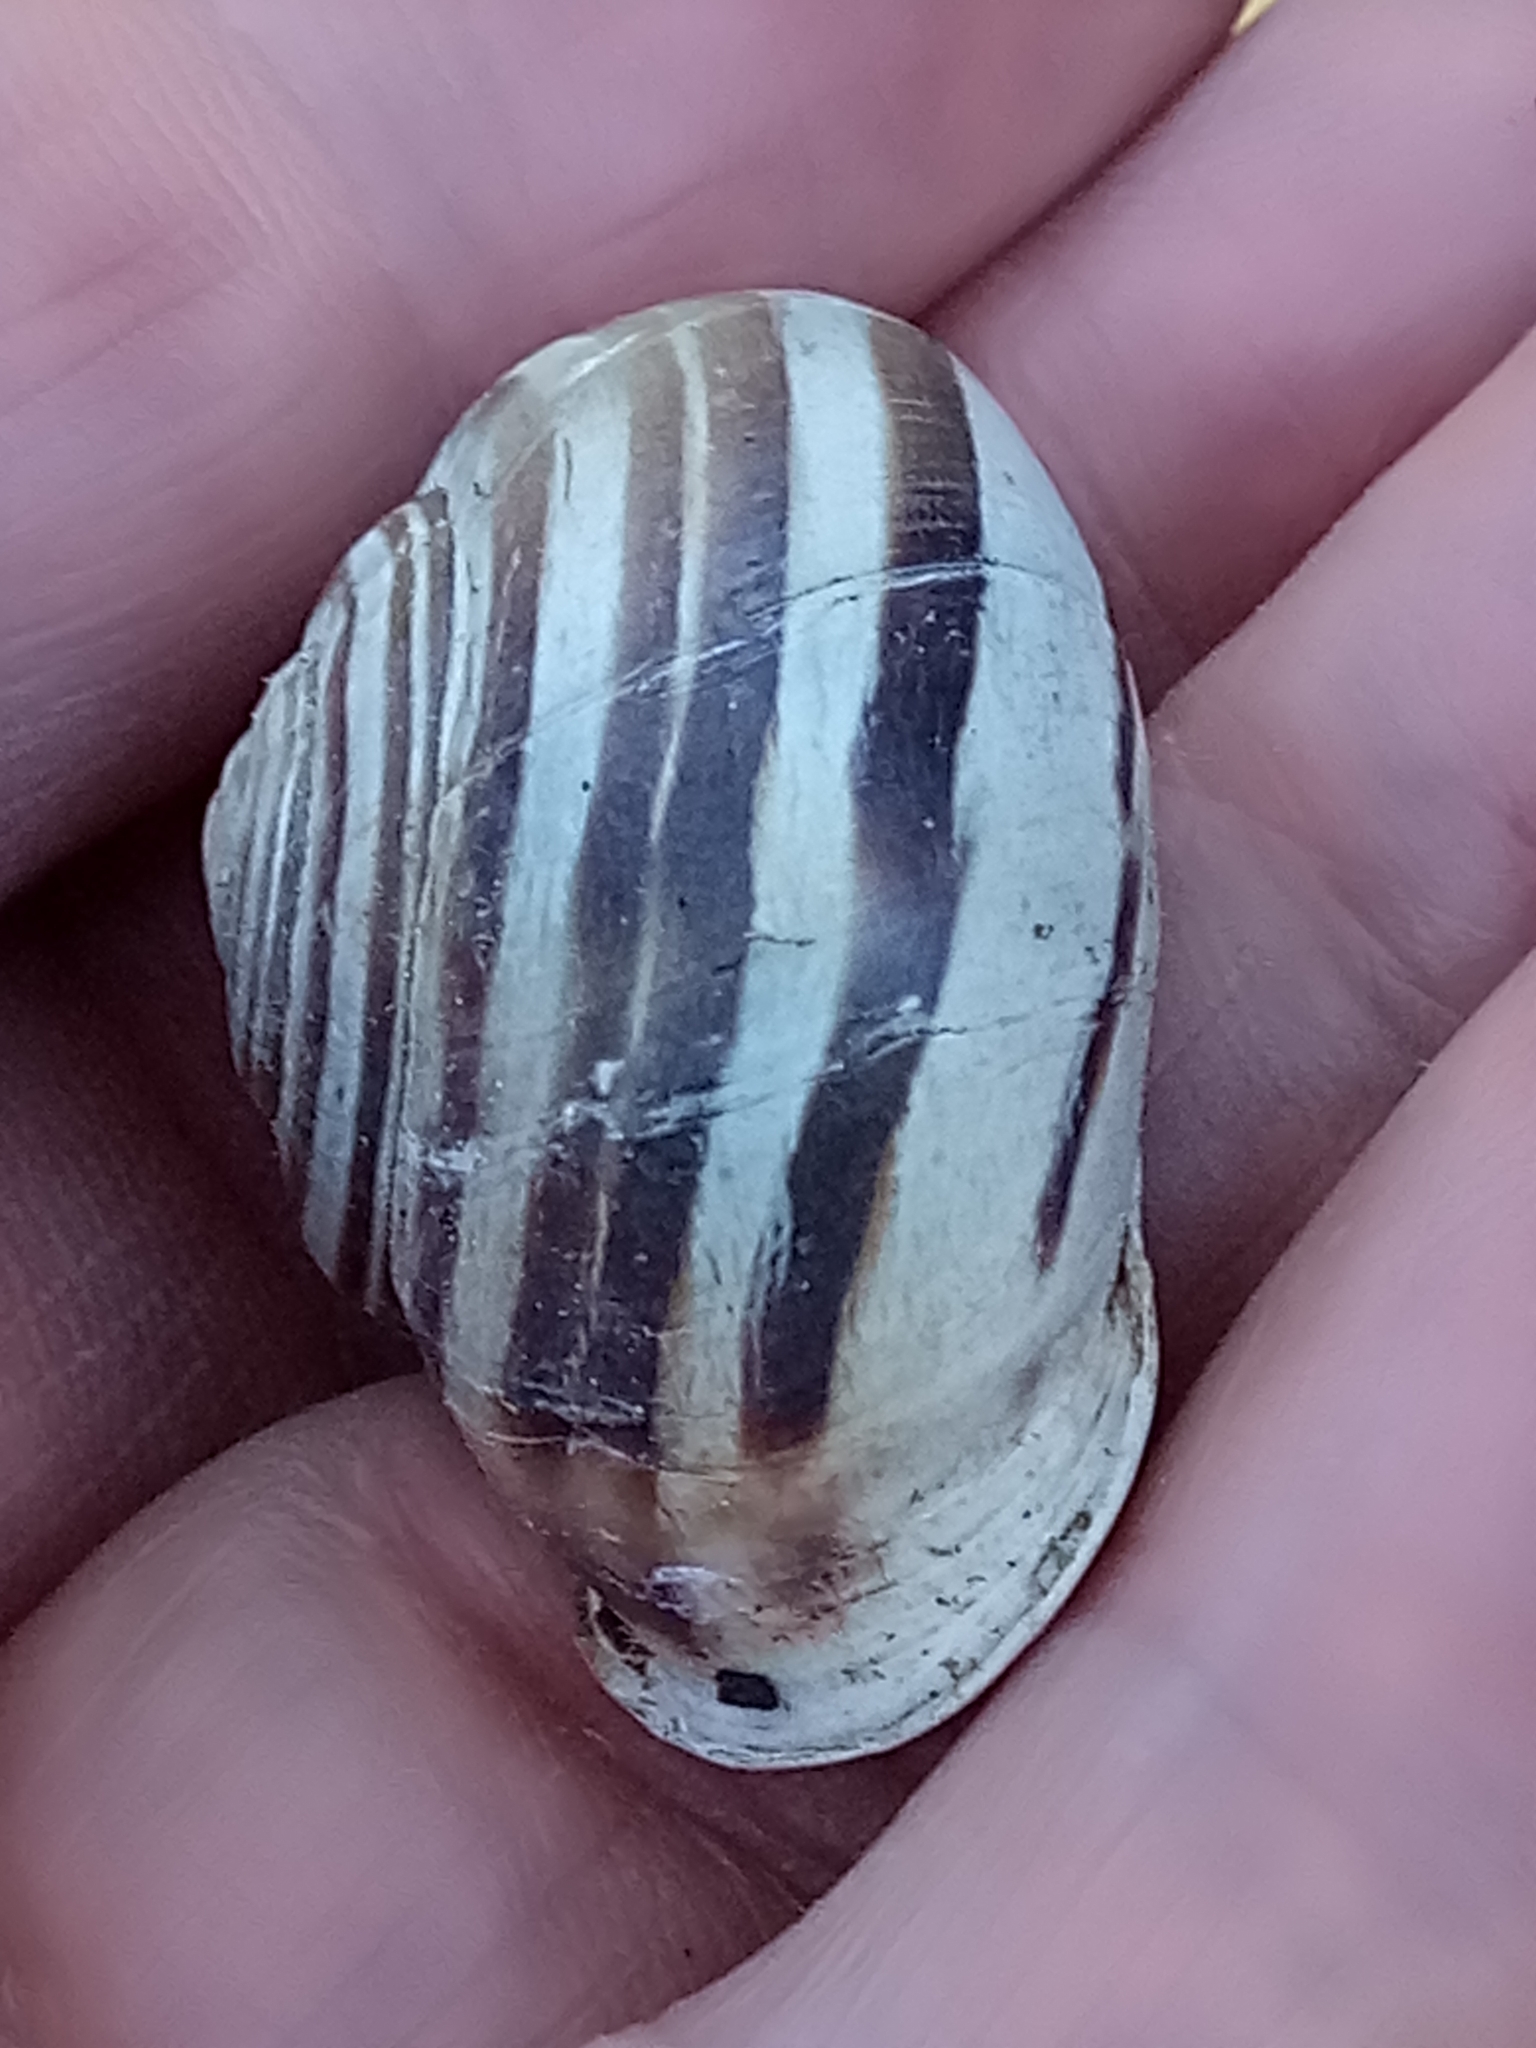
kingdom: Animalia
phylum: Mollusca
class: Gastropoda
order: Stylommatophora
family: Helicidae
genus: Eobania
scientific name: Eobania constantina
